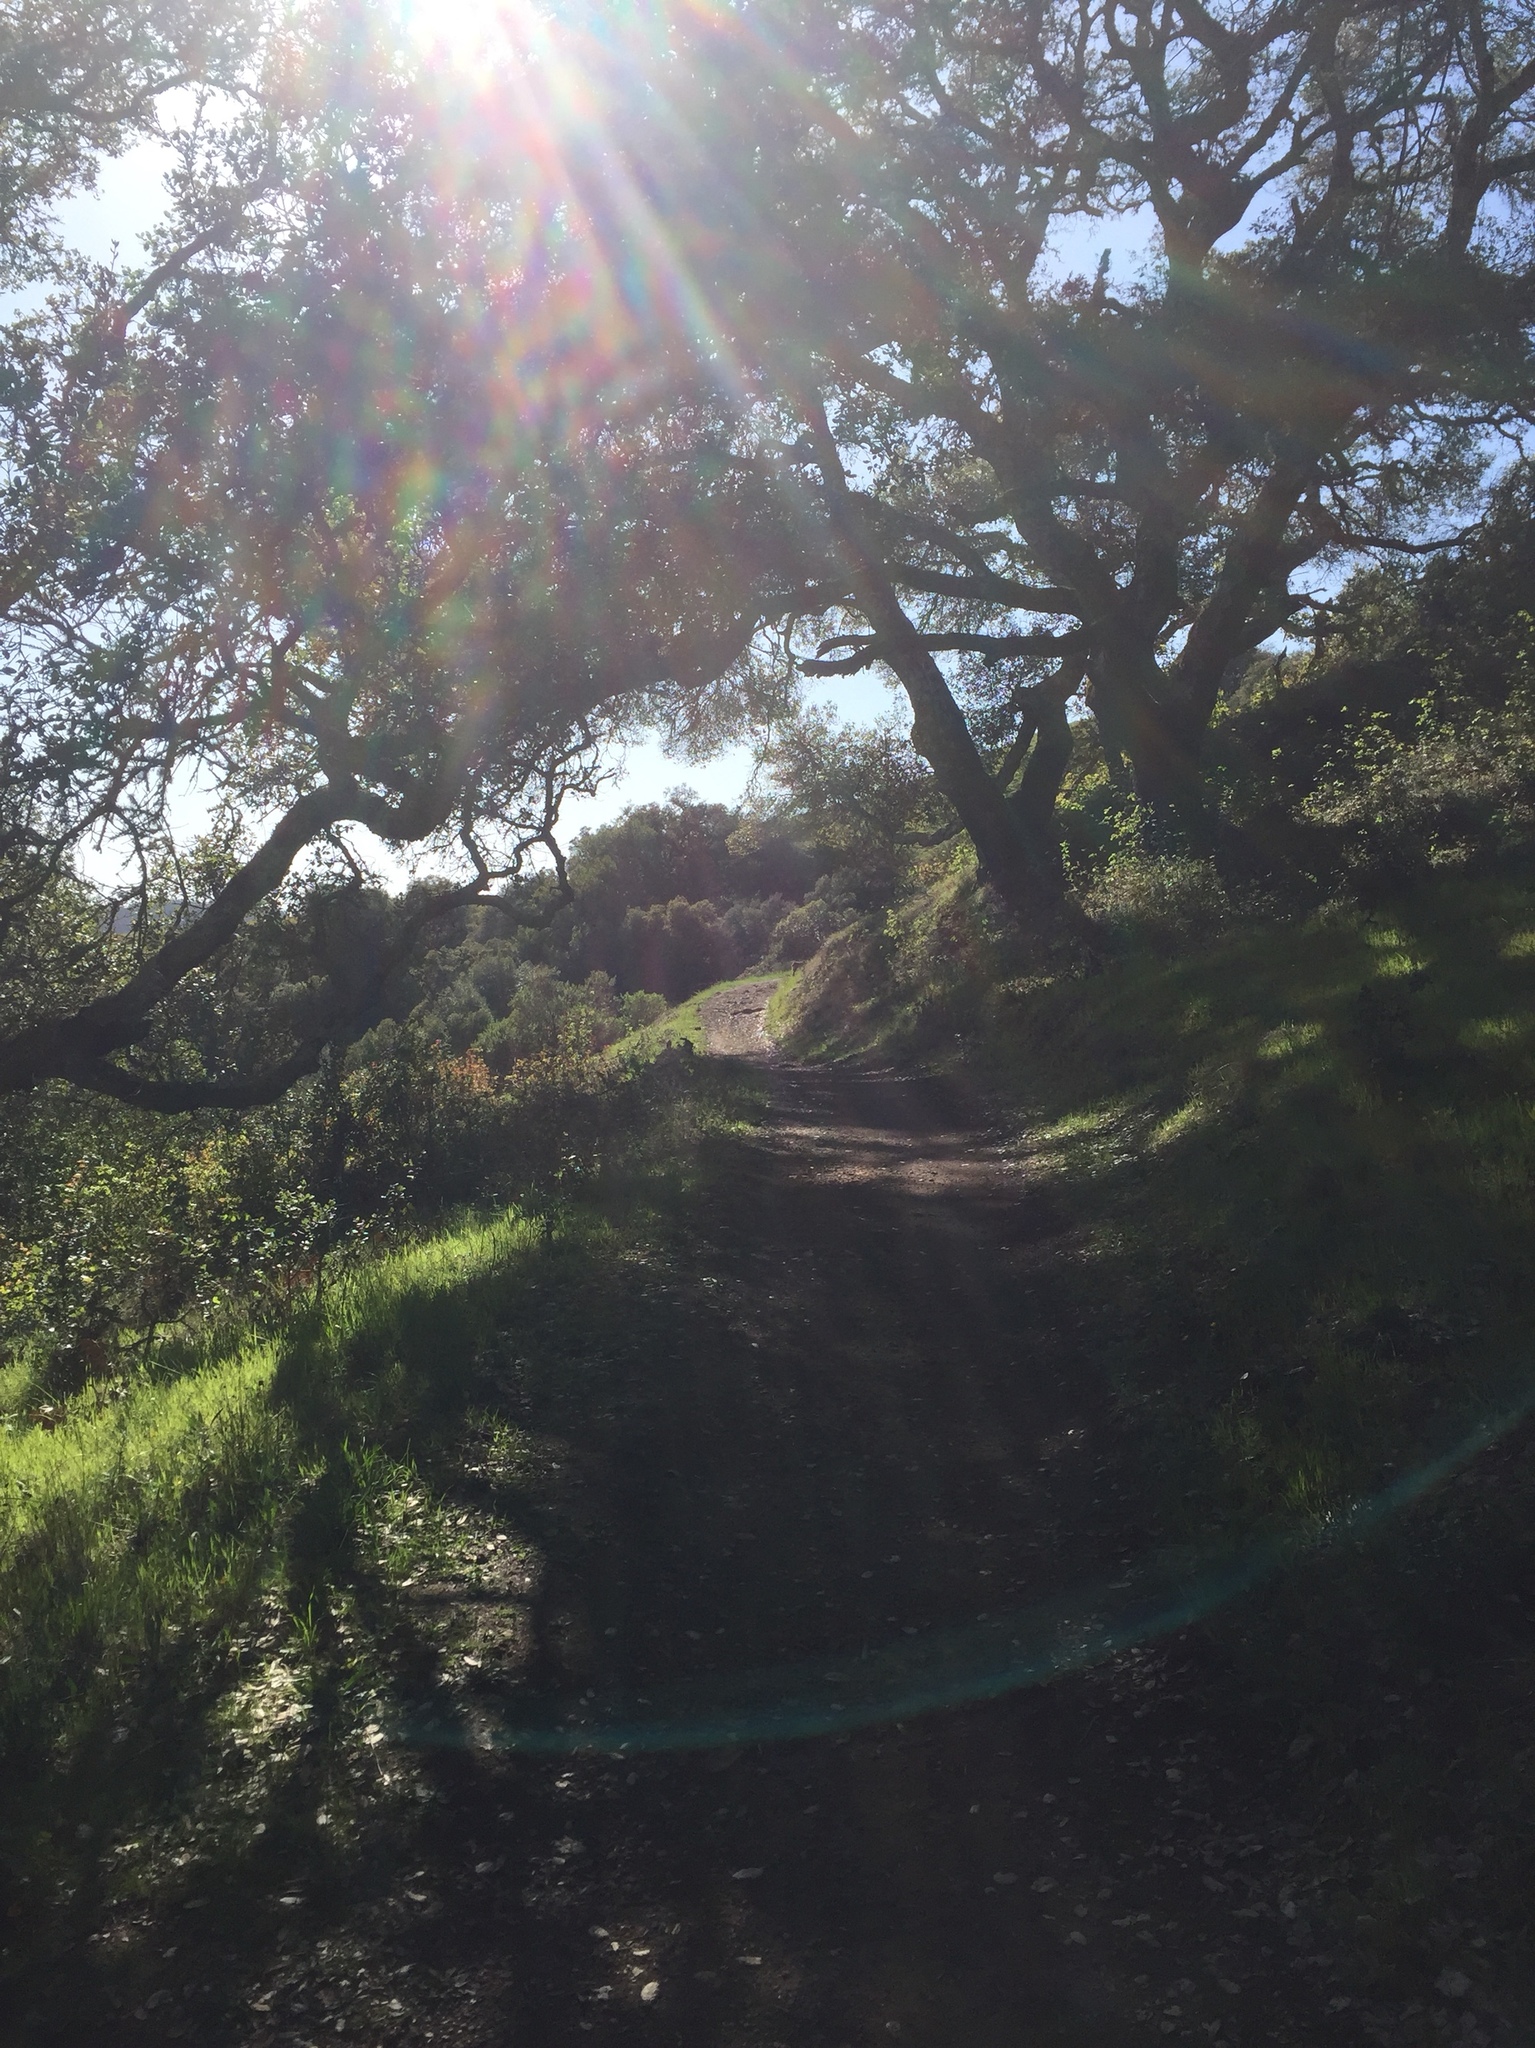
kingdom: Animalia
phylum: Chordata
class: Mammalia
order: Carnivora
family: Felidae
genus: Lynx
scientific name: Lynx rufus
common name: Bobcat
